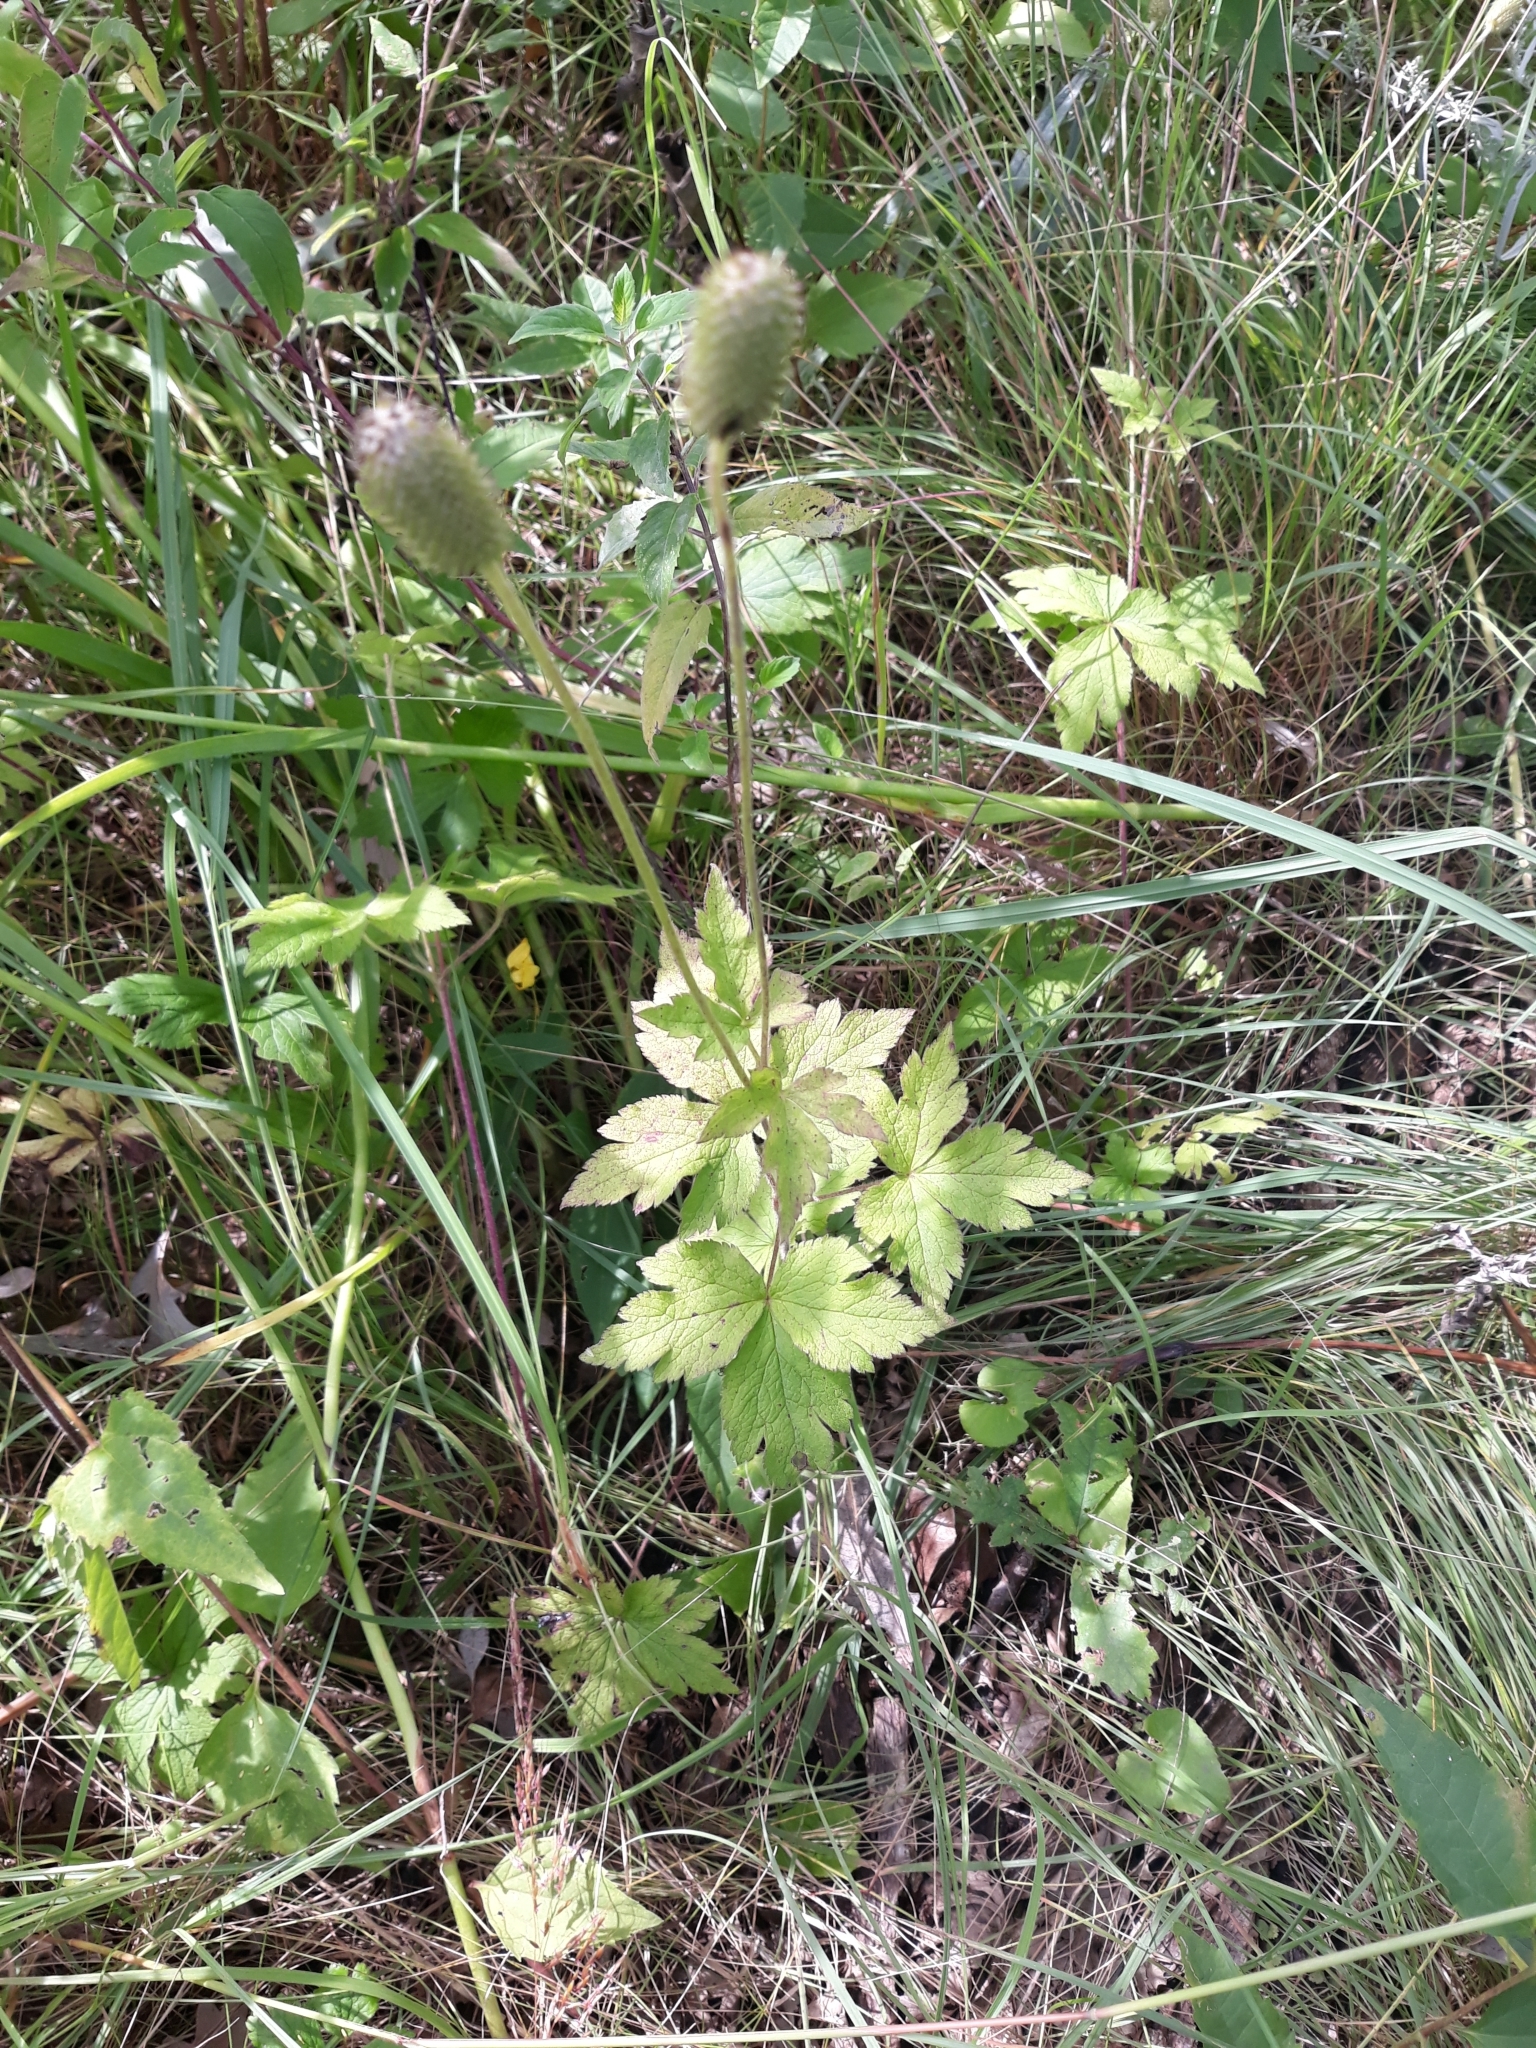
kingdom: Plantae
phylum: Tracheophyta
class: Magnoliopsida
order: Ranunculales
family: Ranunculaceae
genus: Anemone
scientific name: Anemone virginiana
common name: Tall anemone
